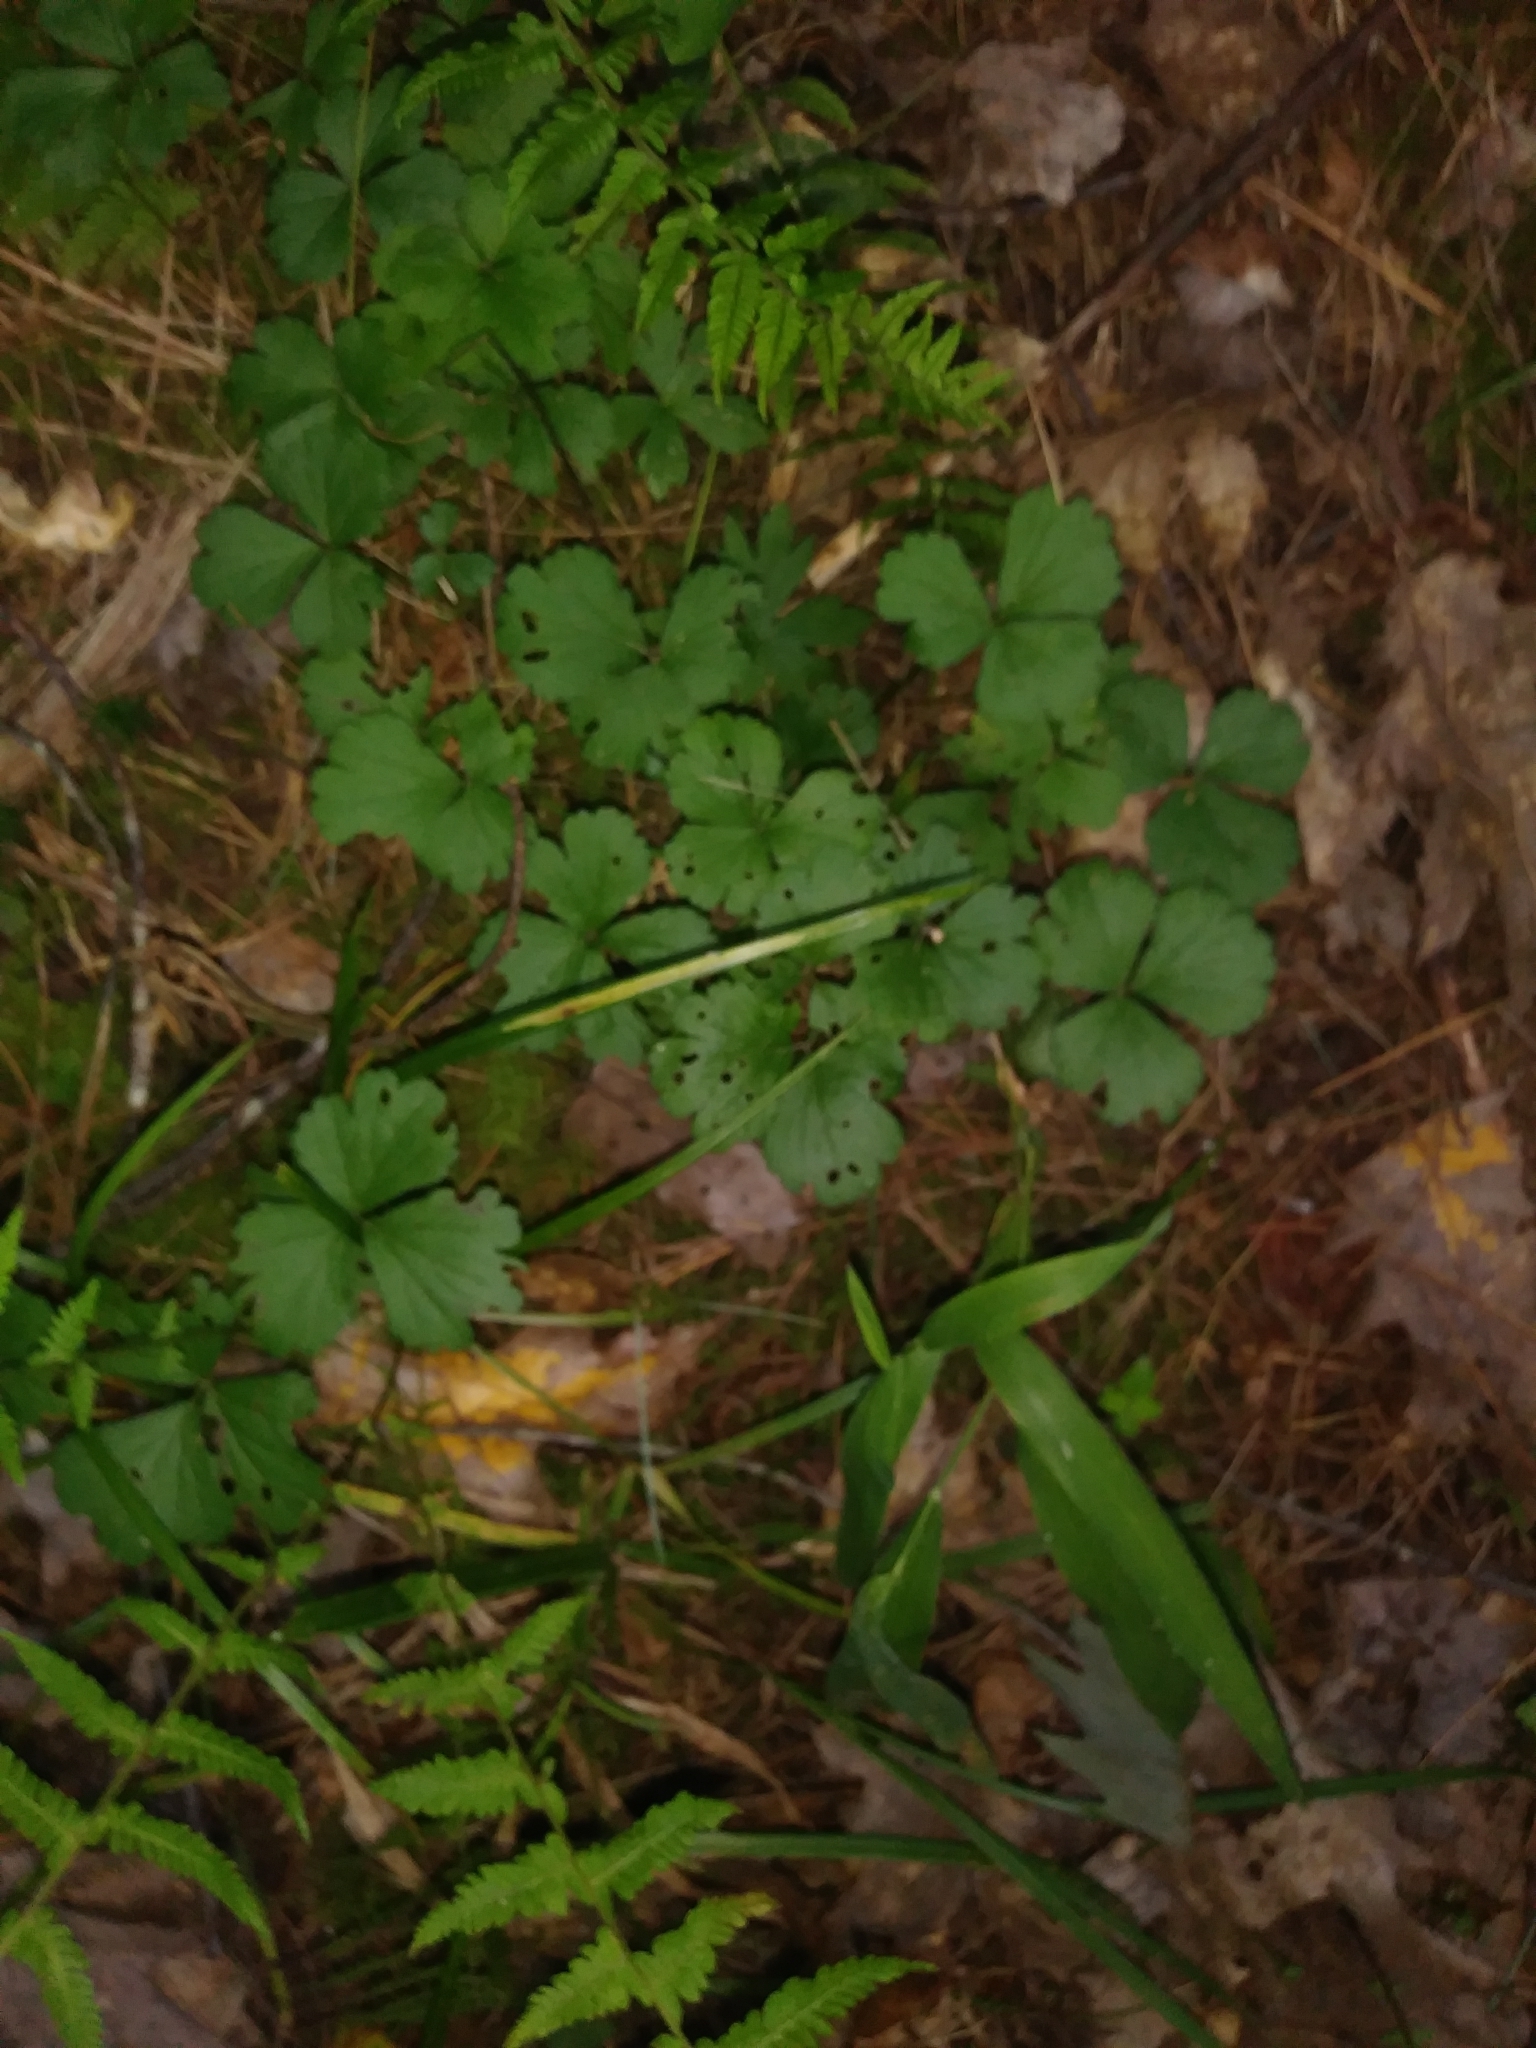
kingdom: Plantae
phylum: Tracheophyta
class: Magnoliopsida
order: Rosales
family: Rosaceae
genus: Geum
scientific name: Geum fragarioides
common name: Appalachian barren strawberry
